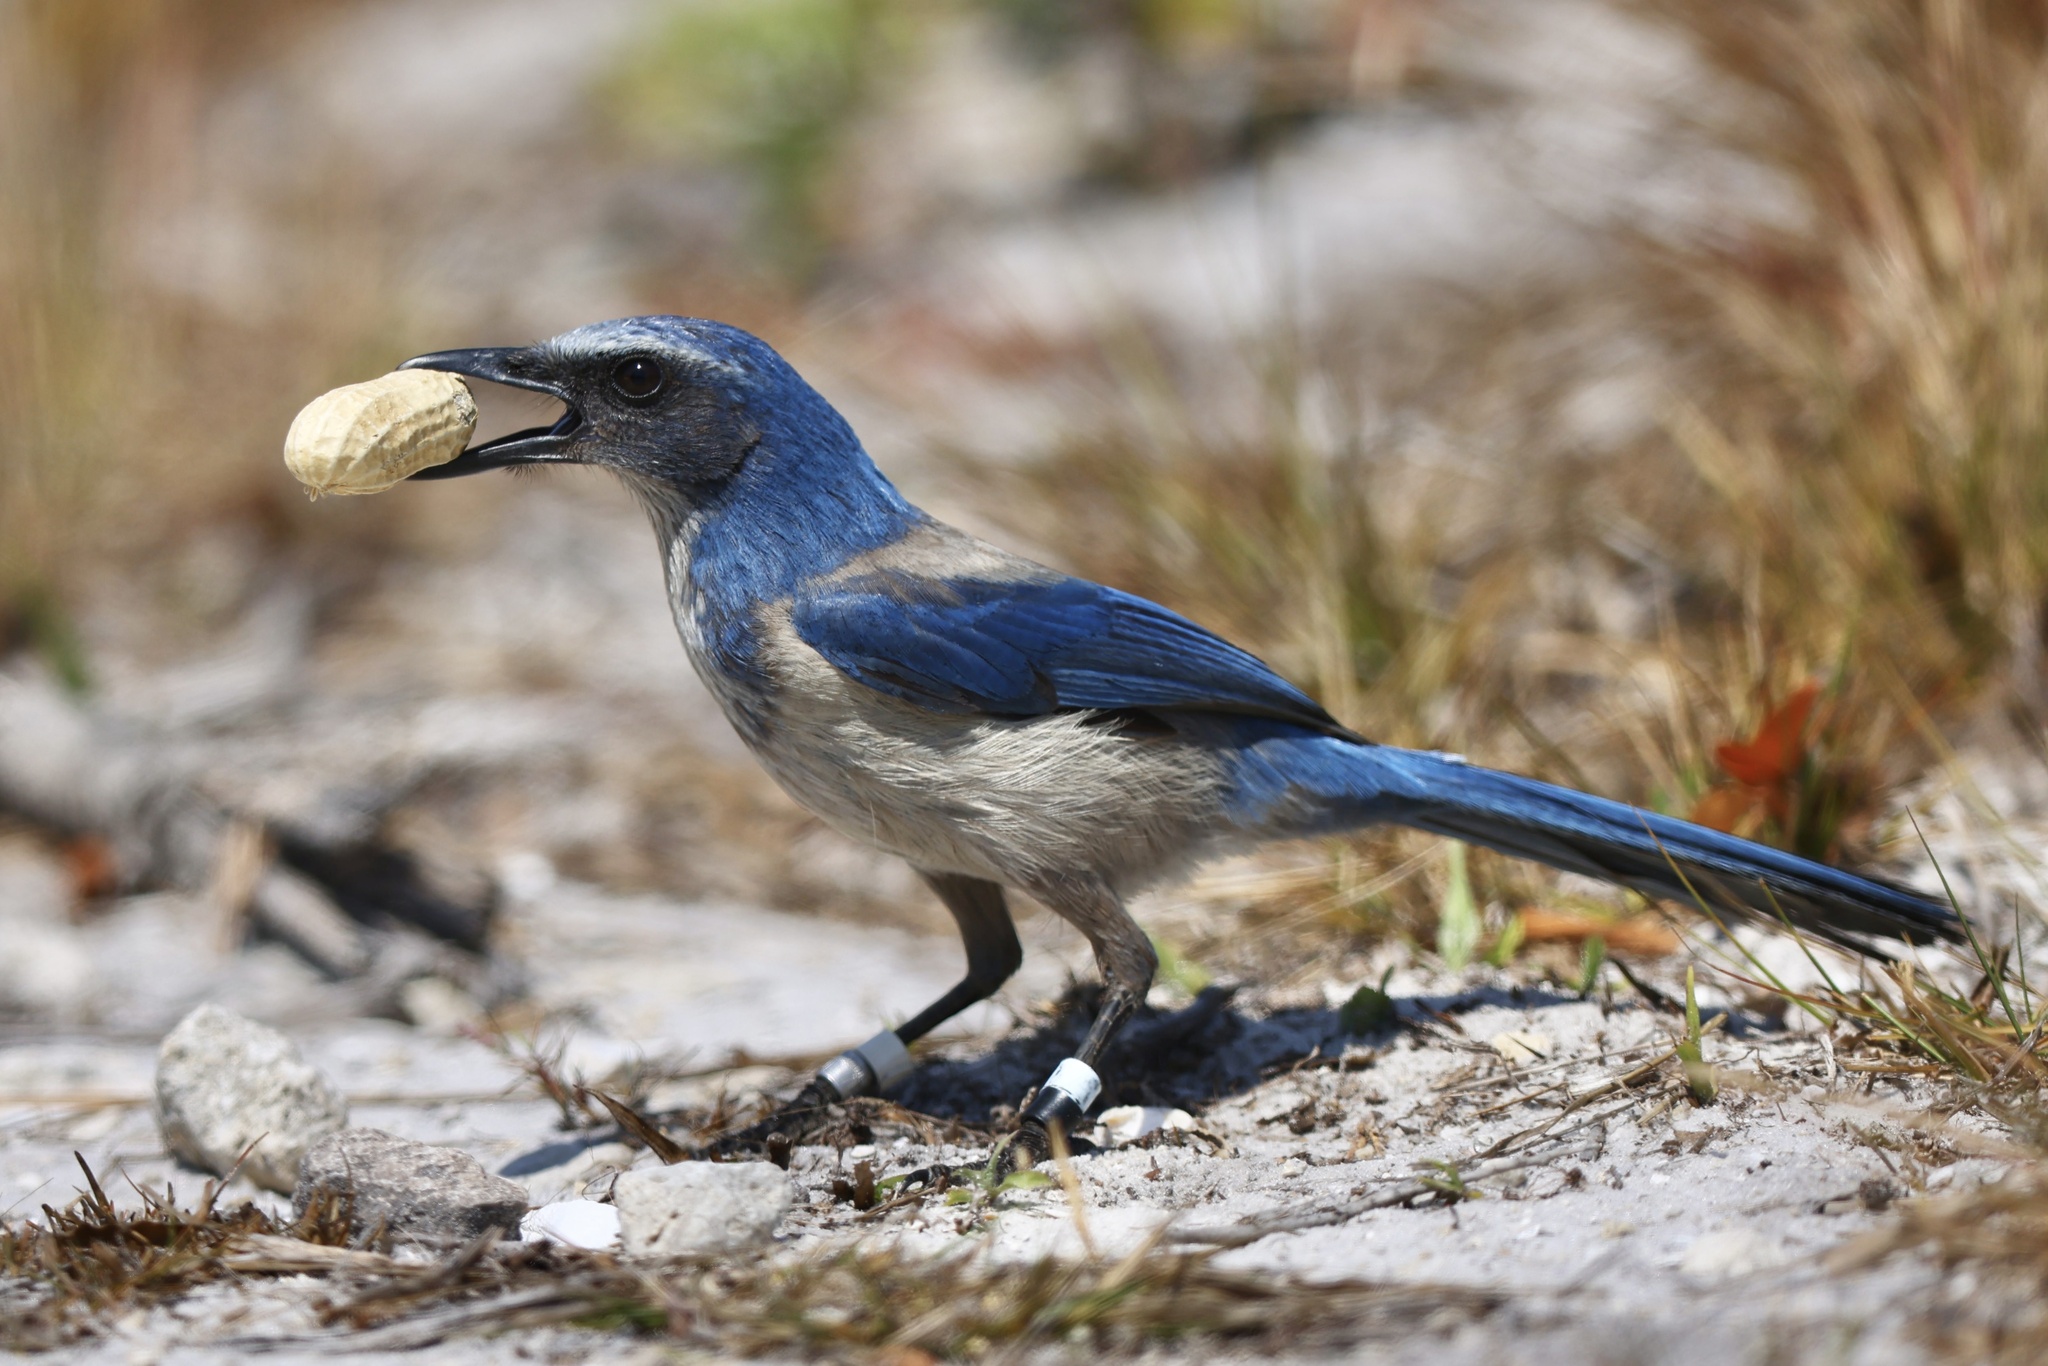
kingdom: Animalia
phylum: Chordata
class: Aves
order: Passeriformes
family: Corvidae
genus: Aphelocoma
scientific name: Aphelocoma coerulescens
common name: Florida scrub jay
